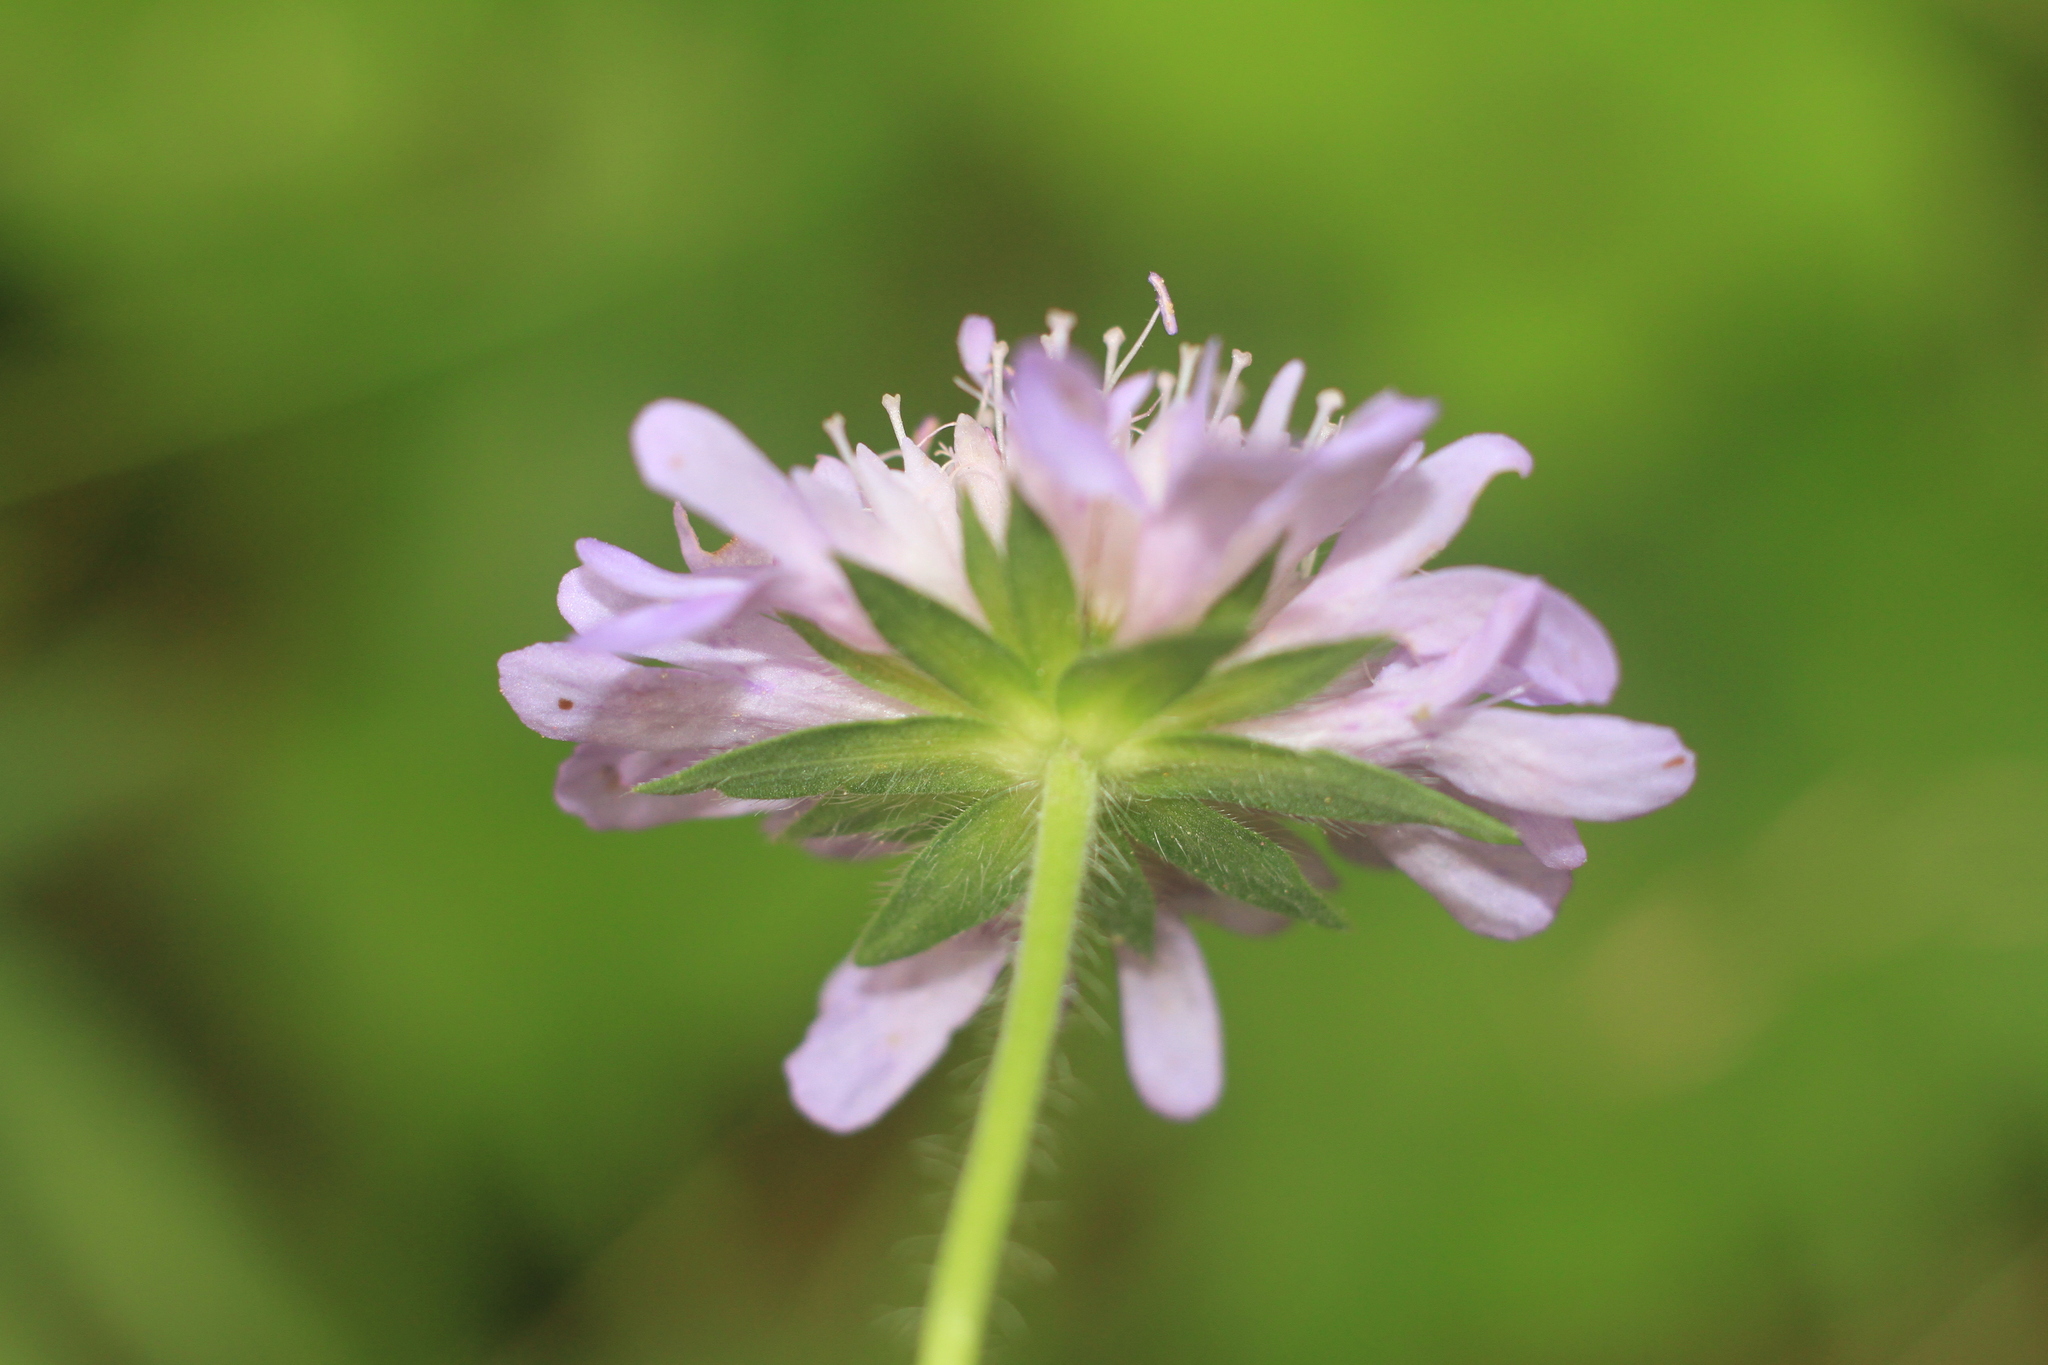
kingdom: Plantae
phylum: Tracheophyta
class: Magnoliopsida
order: Dipsacales
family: Caprifoliaceae
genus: Knautia
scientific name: Knautia arvensis
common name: Field scabiosa
